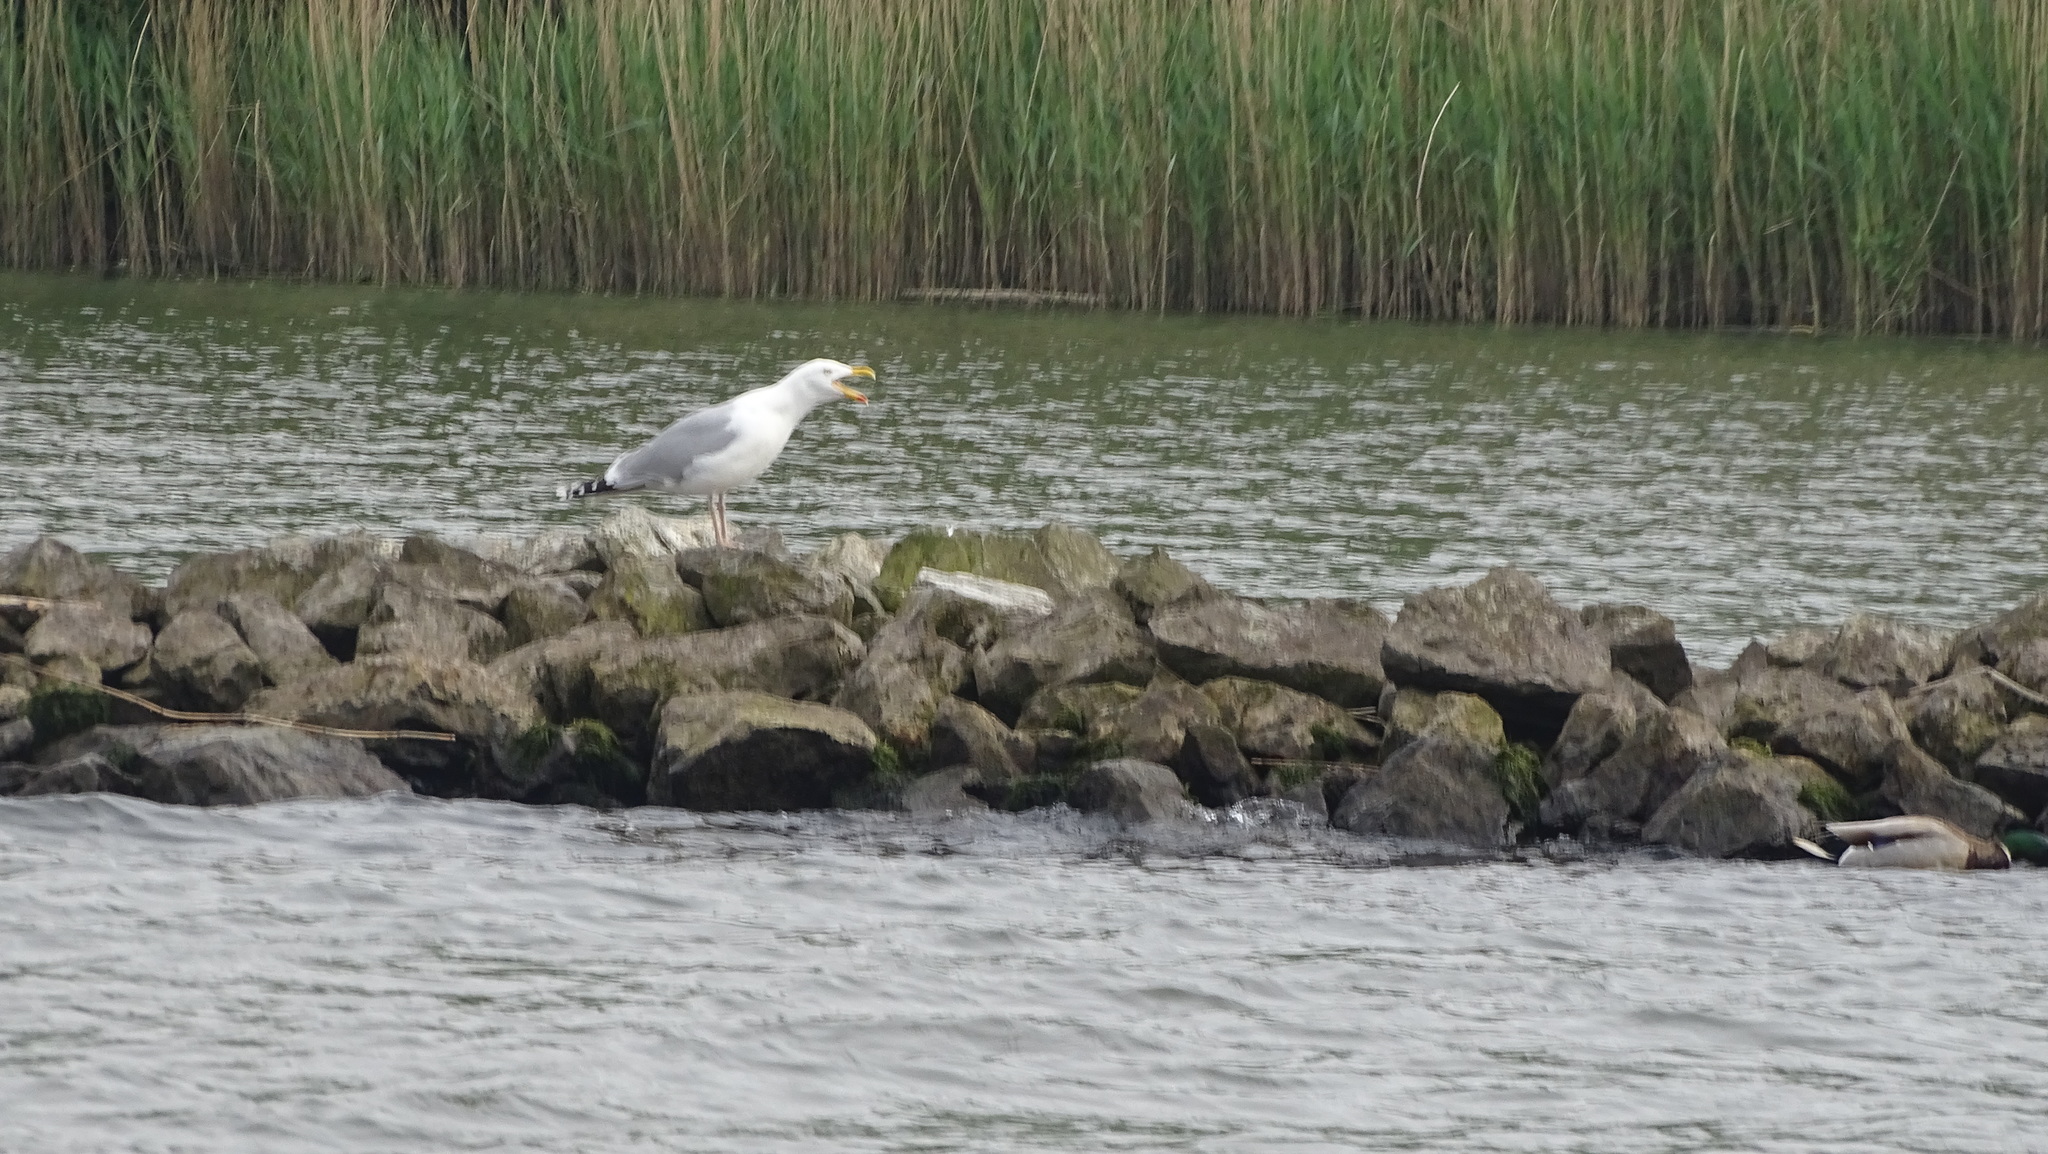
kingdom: Animalia
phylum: Chordata
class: Aves
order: Charadriiformes
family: Laridae
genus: Larus
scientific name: Larus argentatus
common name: Herring gull
